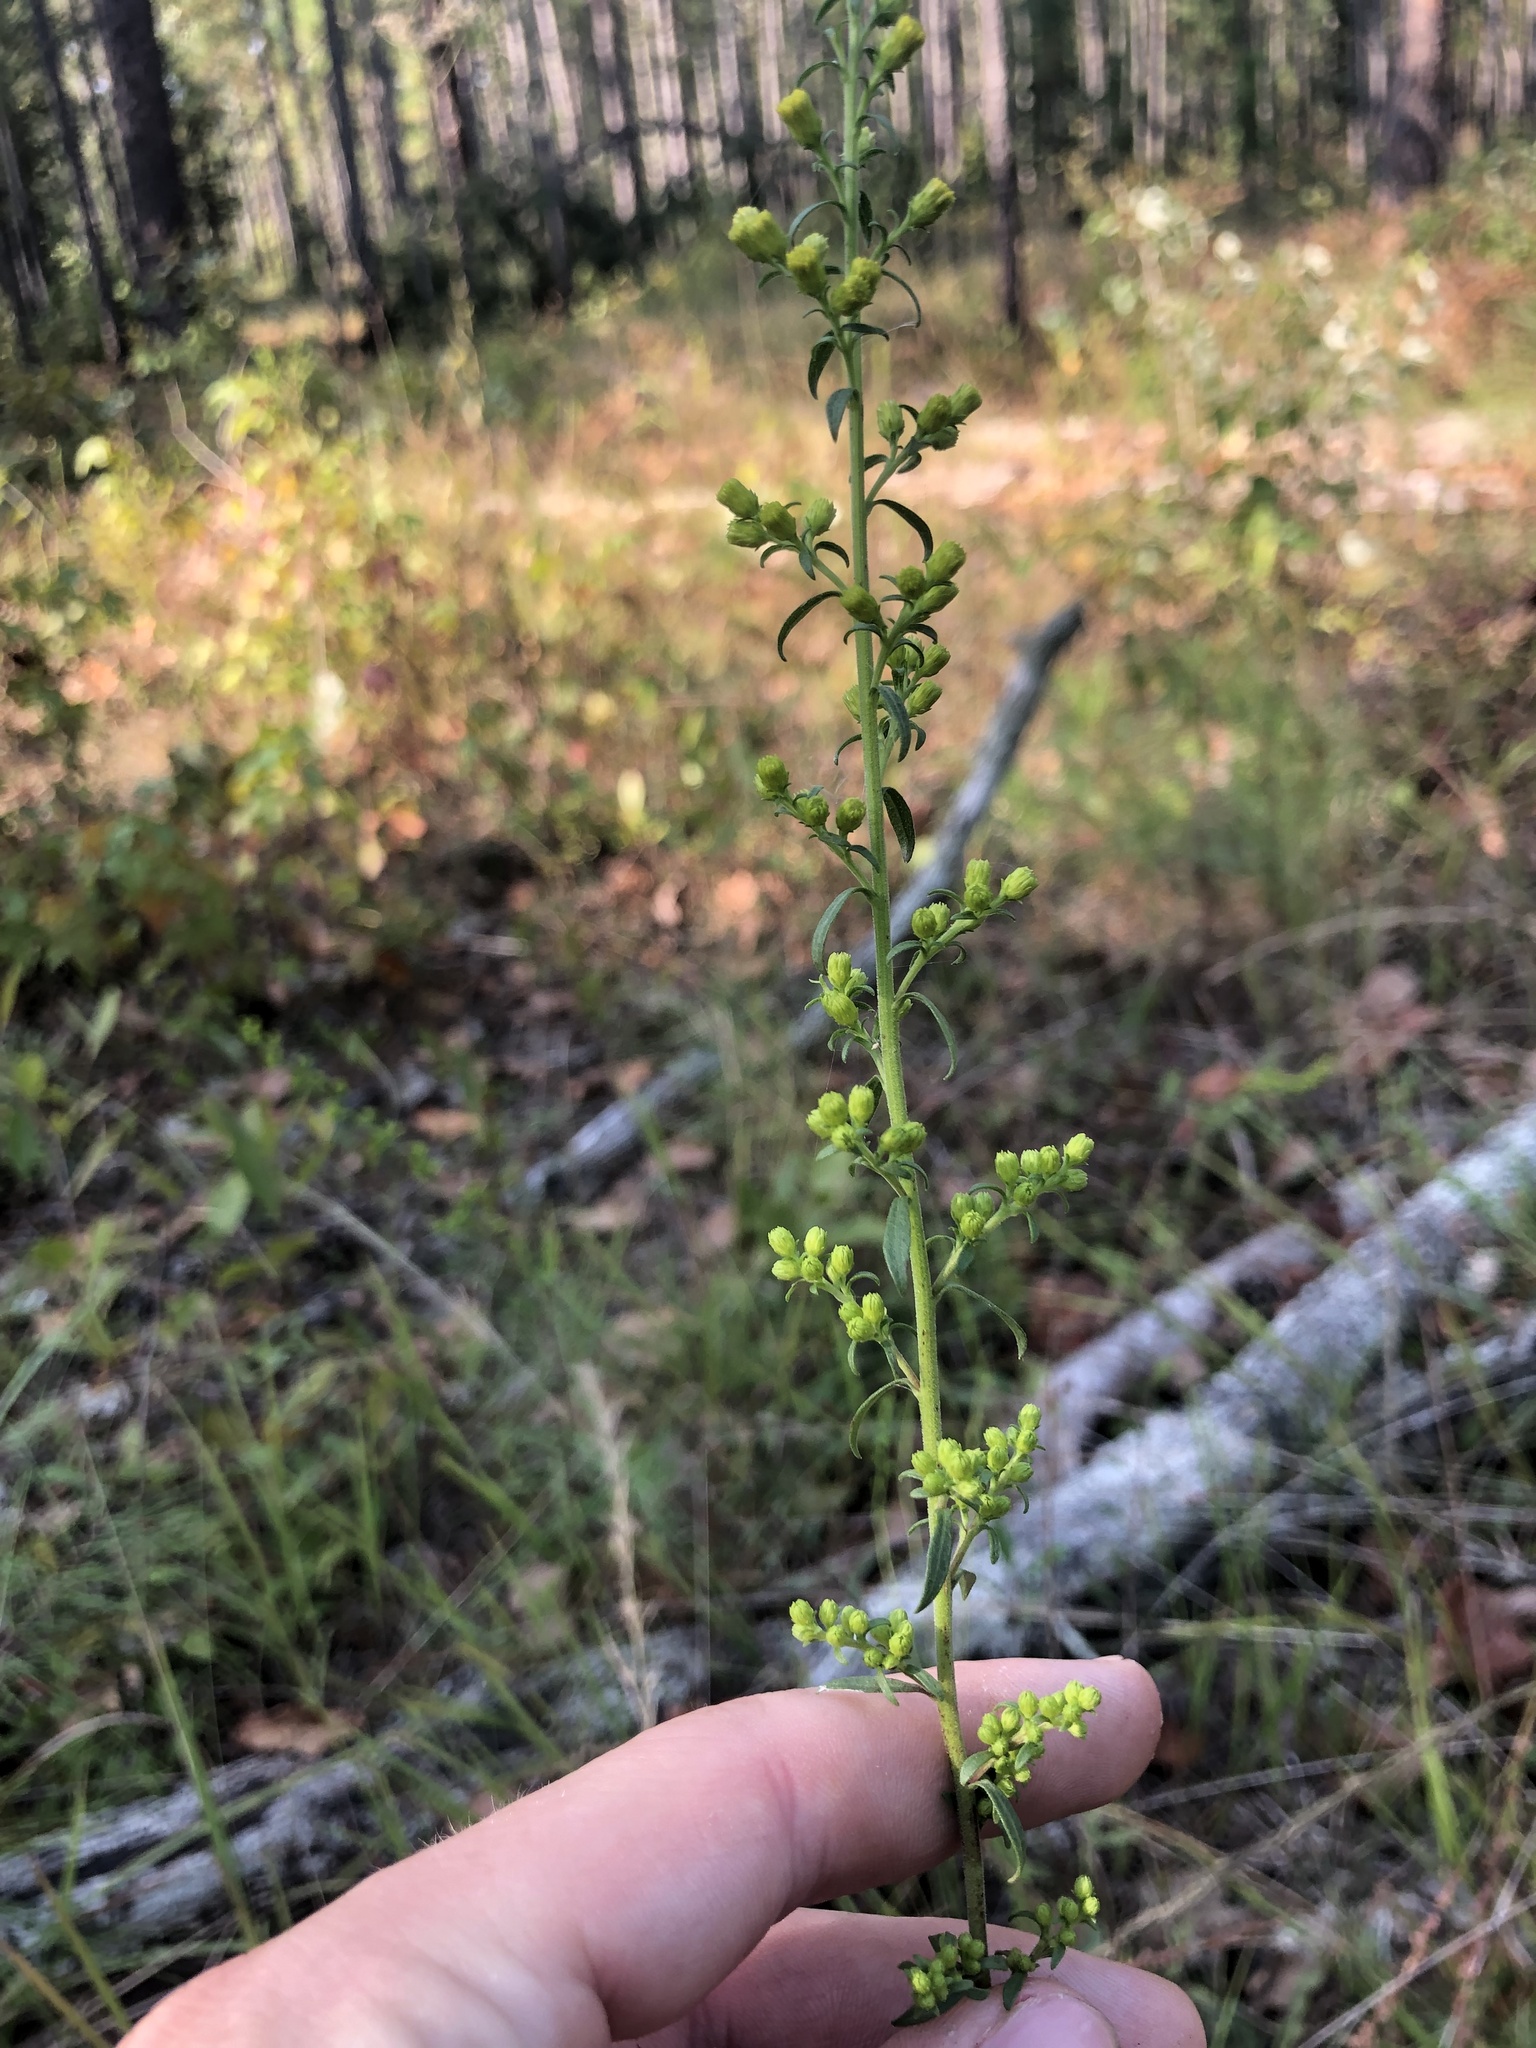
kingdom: Plantae
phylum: Tracheophyta
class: Magnoliopsida
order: Asterales
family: Asteraceae
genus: Solidago
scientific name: Solidago pulverulenta
